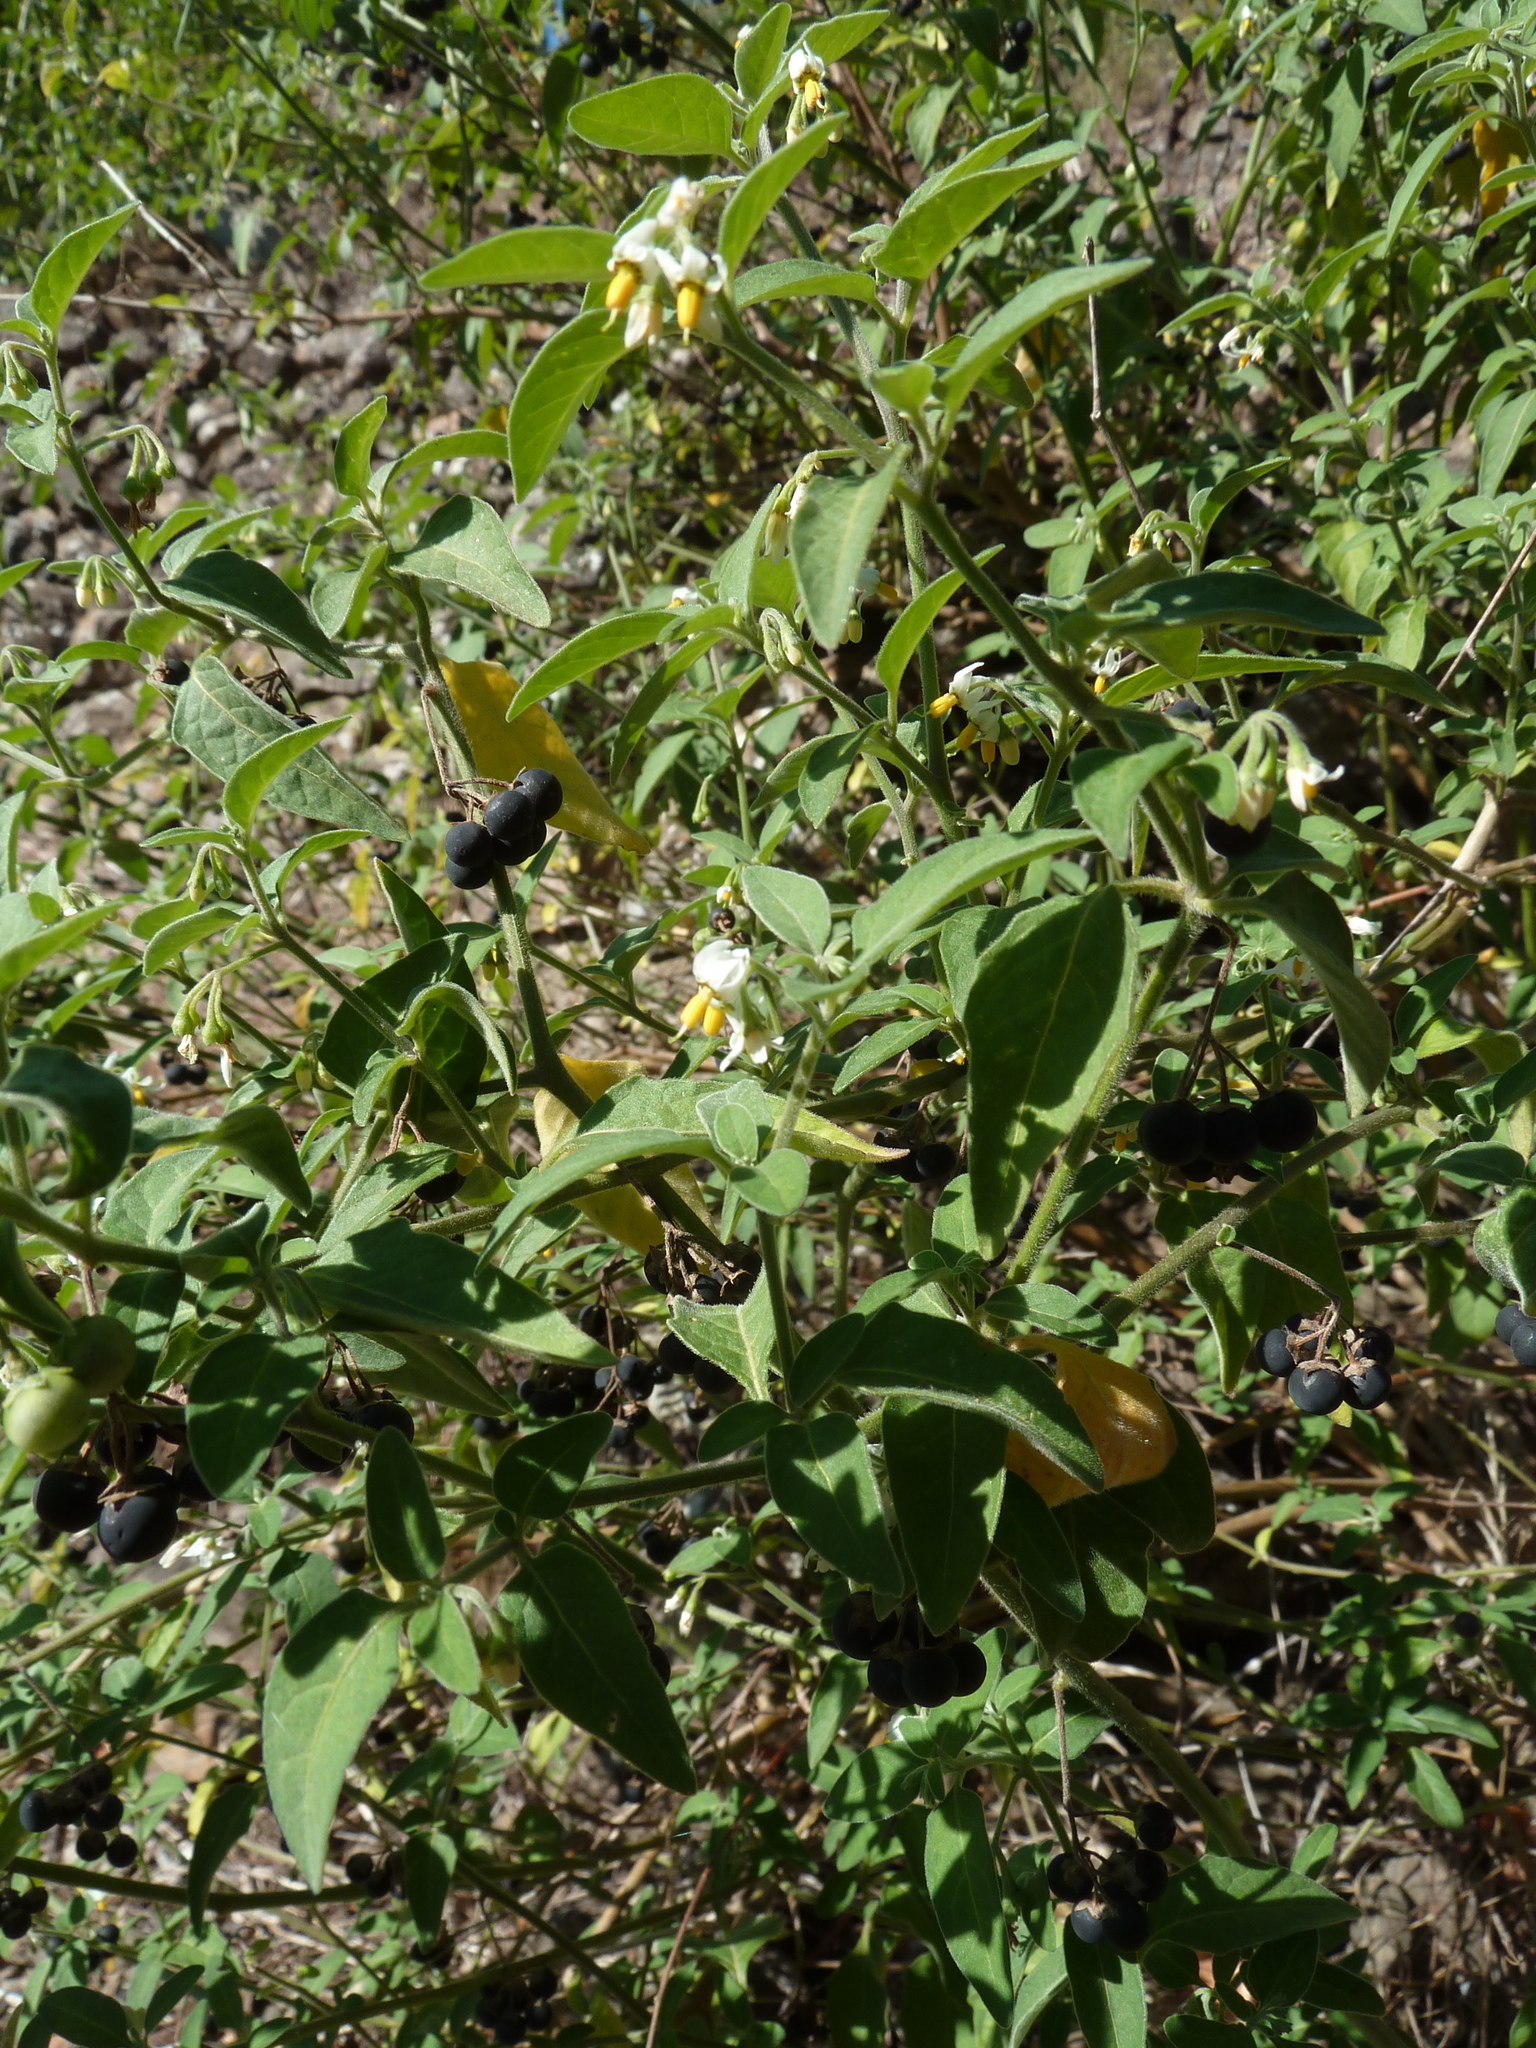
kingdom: Plantae
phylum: Tracheophyta
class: Magnoliopsida
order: Solanales
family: Solanaceae
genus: Solanum
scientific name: Solanum chenopodioides
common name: Tall nightshade
